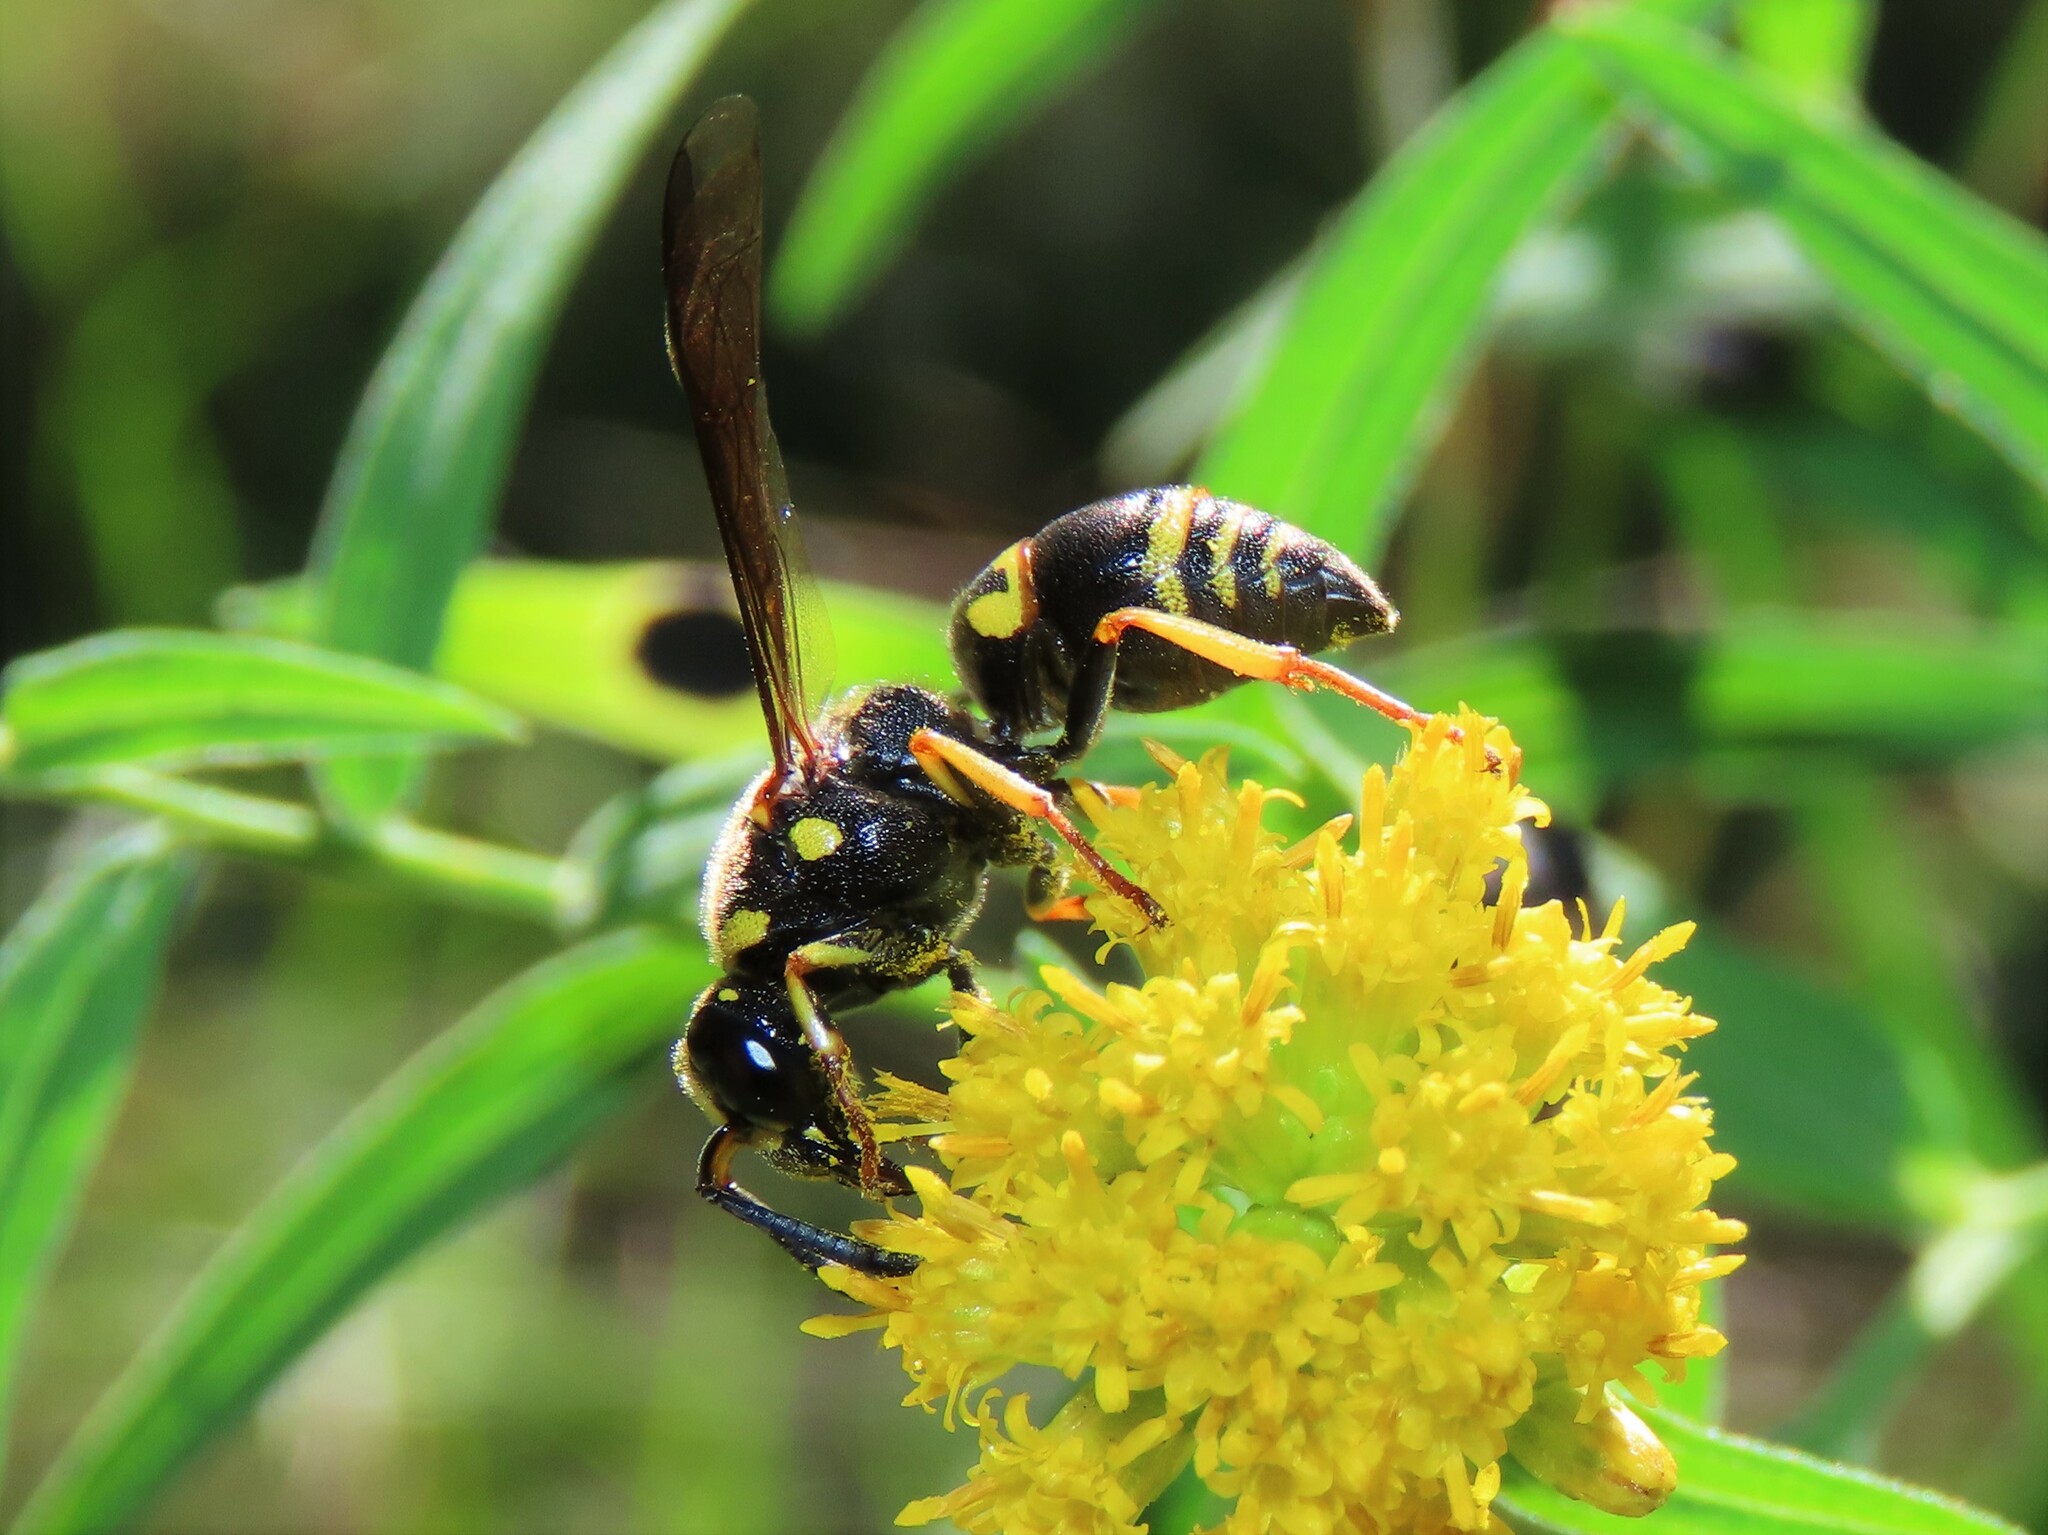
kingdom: Animalia
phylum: Arthropoda
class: Insecta
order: Hymenoptera
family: Eumenidae
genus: Euodynerus
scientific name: Euodynerus foraminatus
